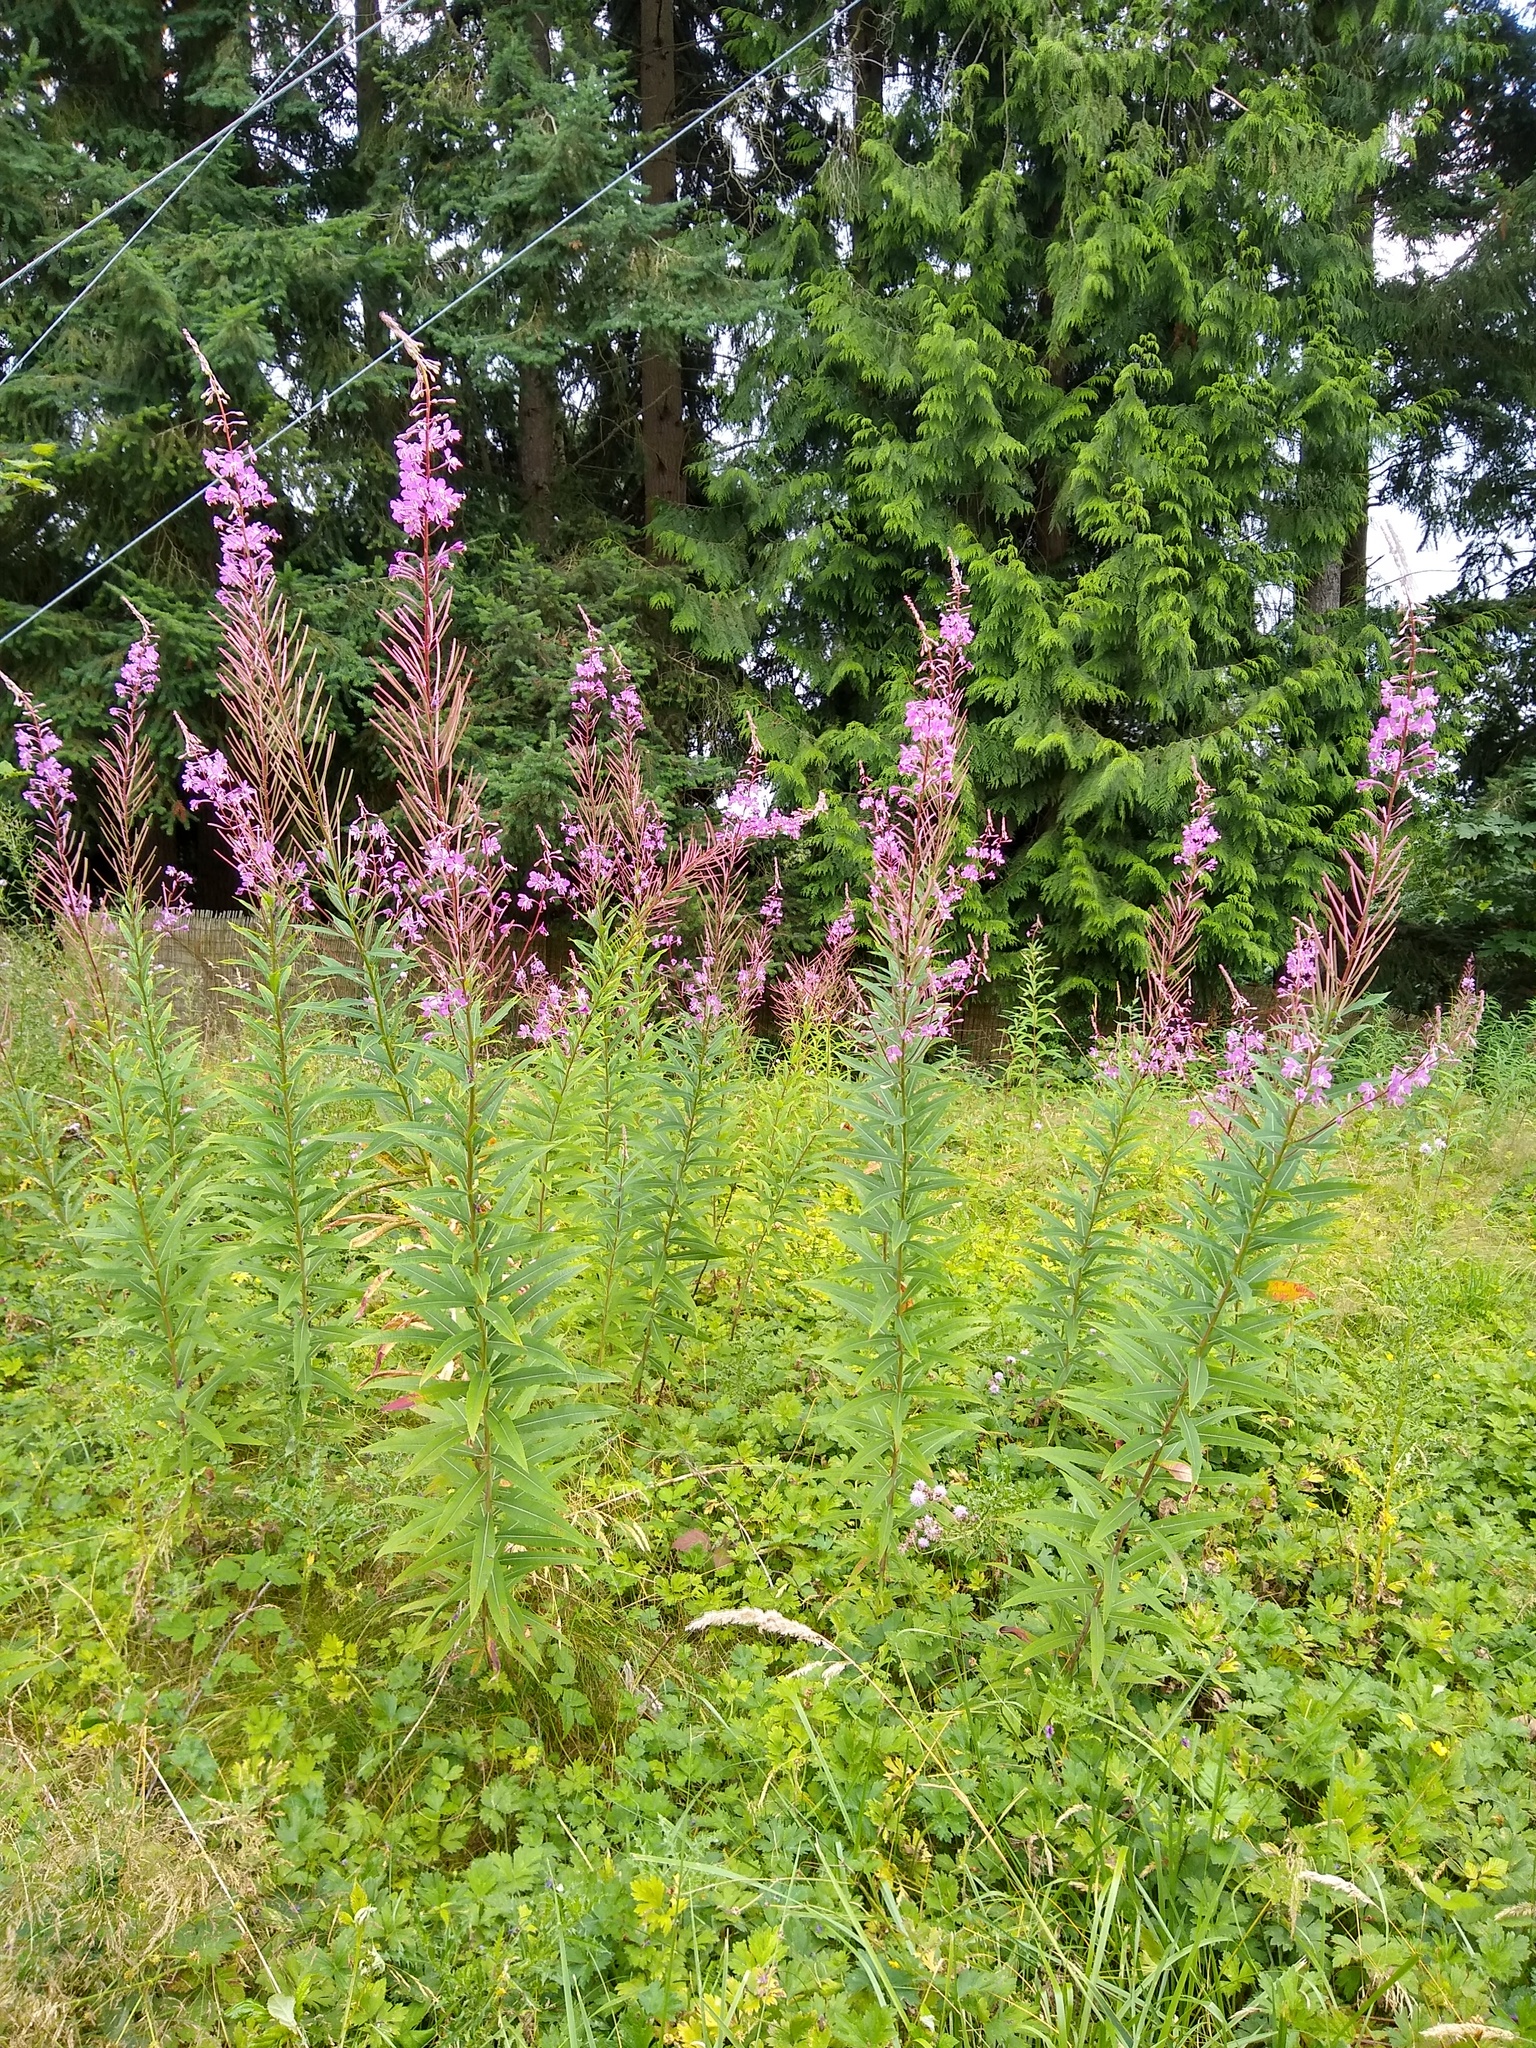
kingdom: Plantae
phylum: Tracheophyta
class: Magnoliopsida
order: Myrtales
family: Onagraceae
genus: Chamaenerion
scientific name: Chamaenerion angustifolium
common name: Fireweed
